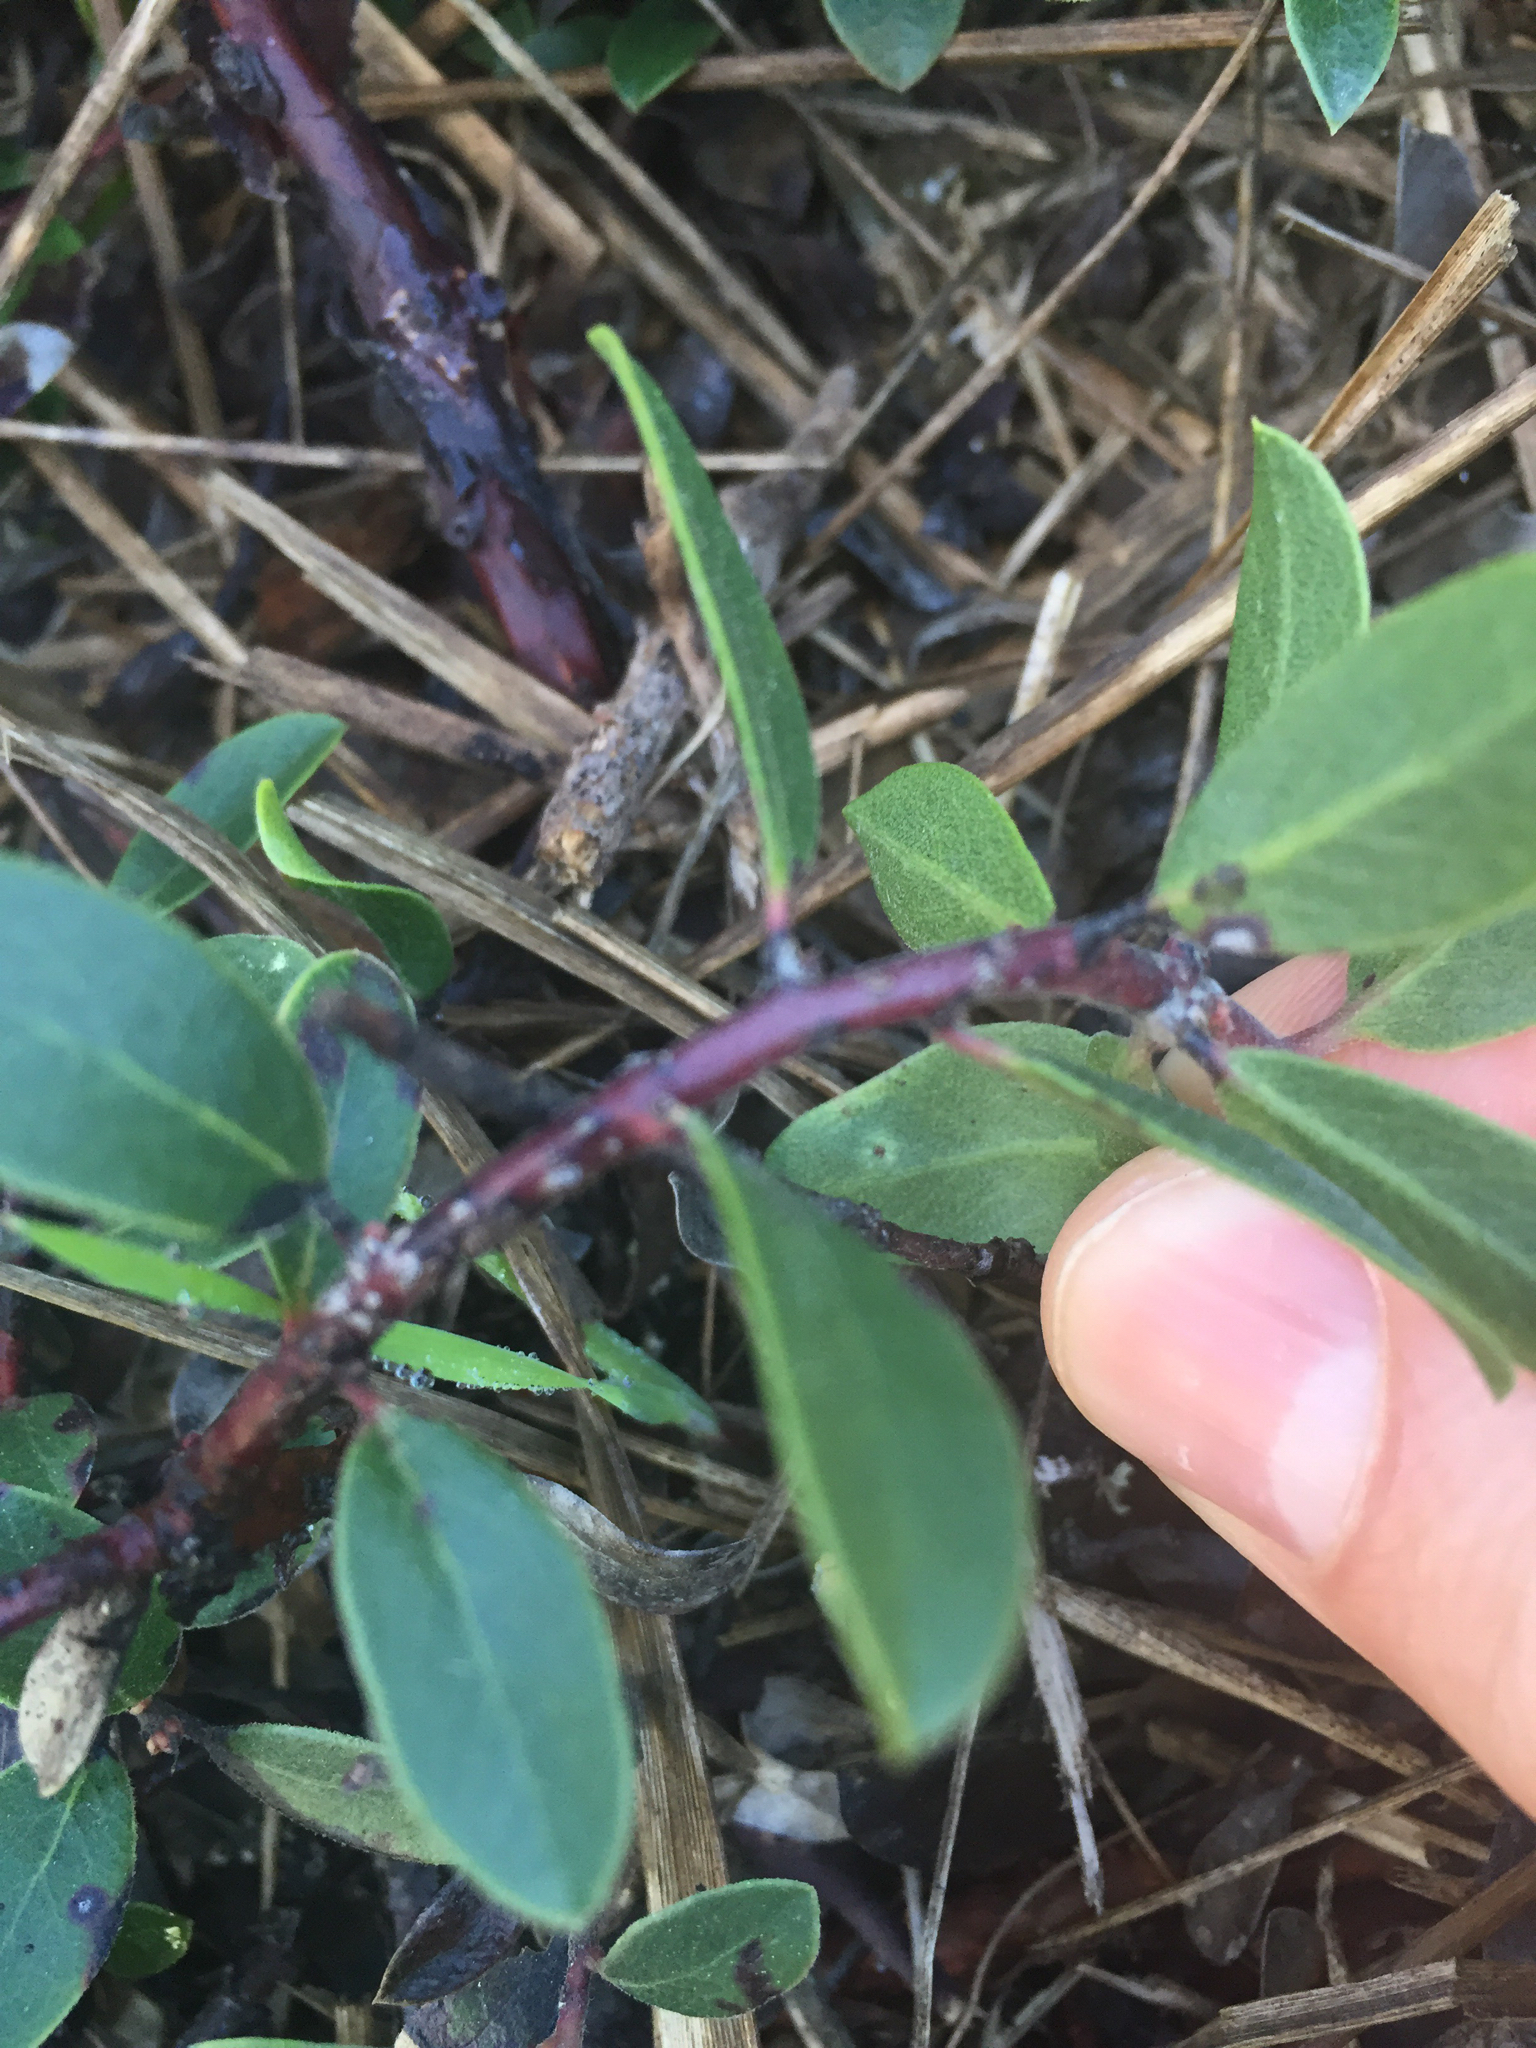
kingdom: Plantae
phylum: Tracheophyta
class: Magnoliopsida
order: Ericales
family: Ericaceae
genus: Arctostaphylos
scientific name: Arctostaphylos uva-ursi
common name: Bearberry
